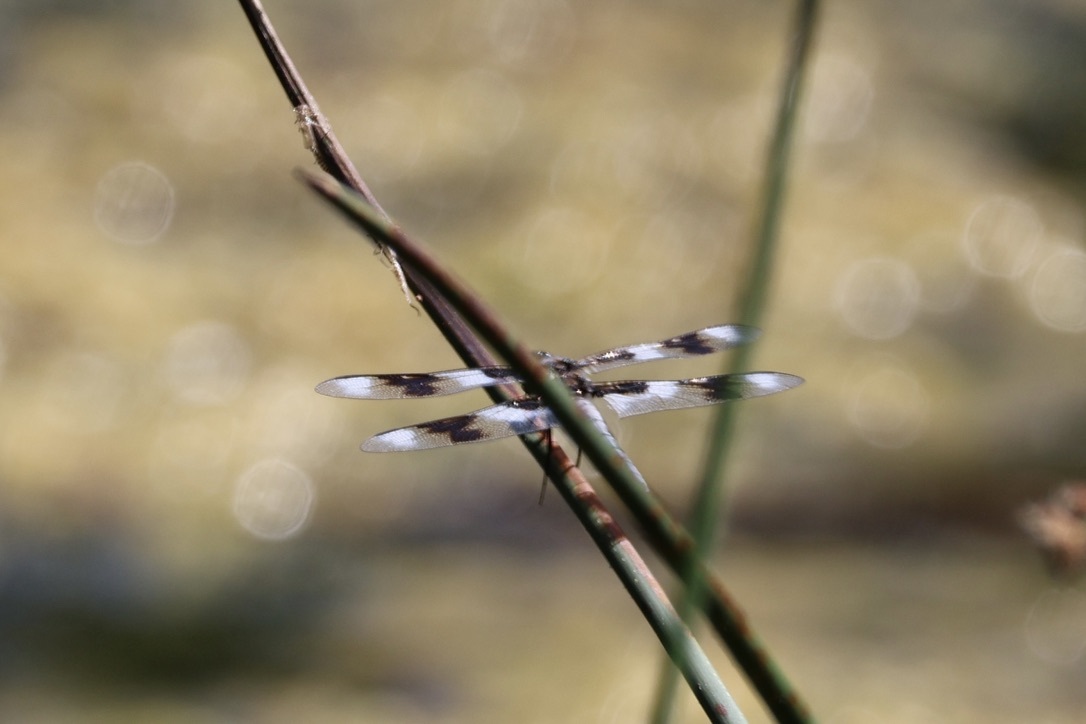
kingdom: Animalia
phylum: Arthropoda
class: Insecta
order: Odonata
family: Libellulidae
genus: Libellula
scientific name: Libellula forensis
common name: Eight-spotted skimmer
